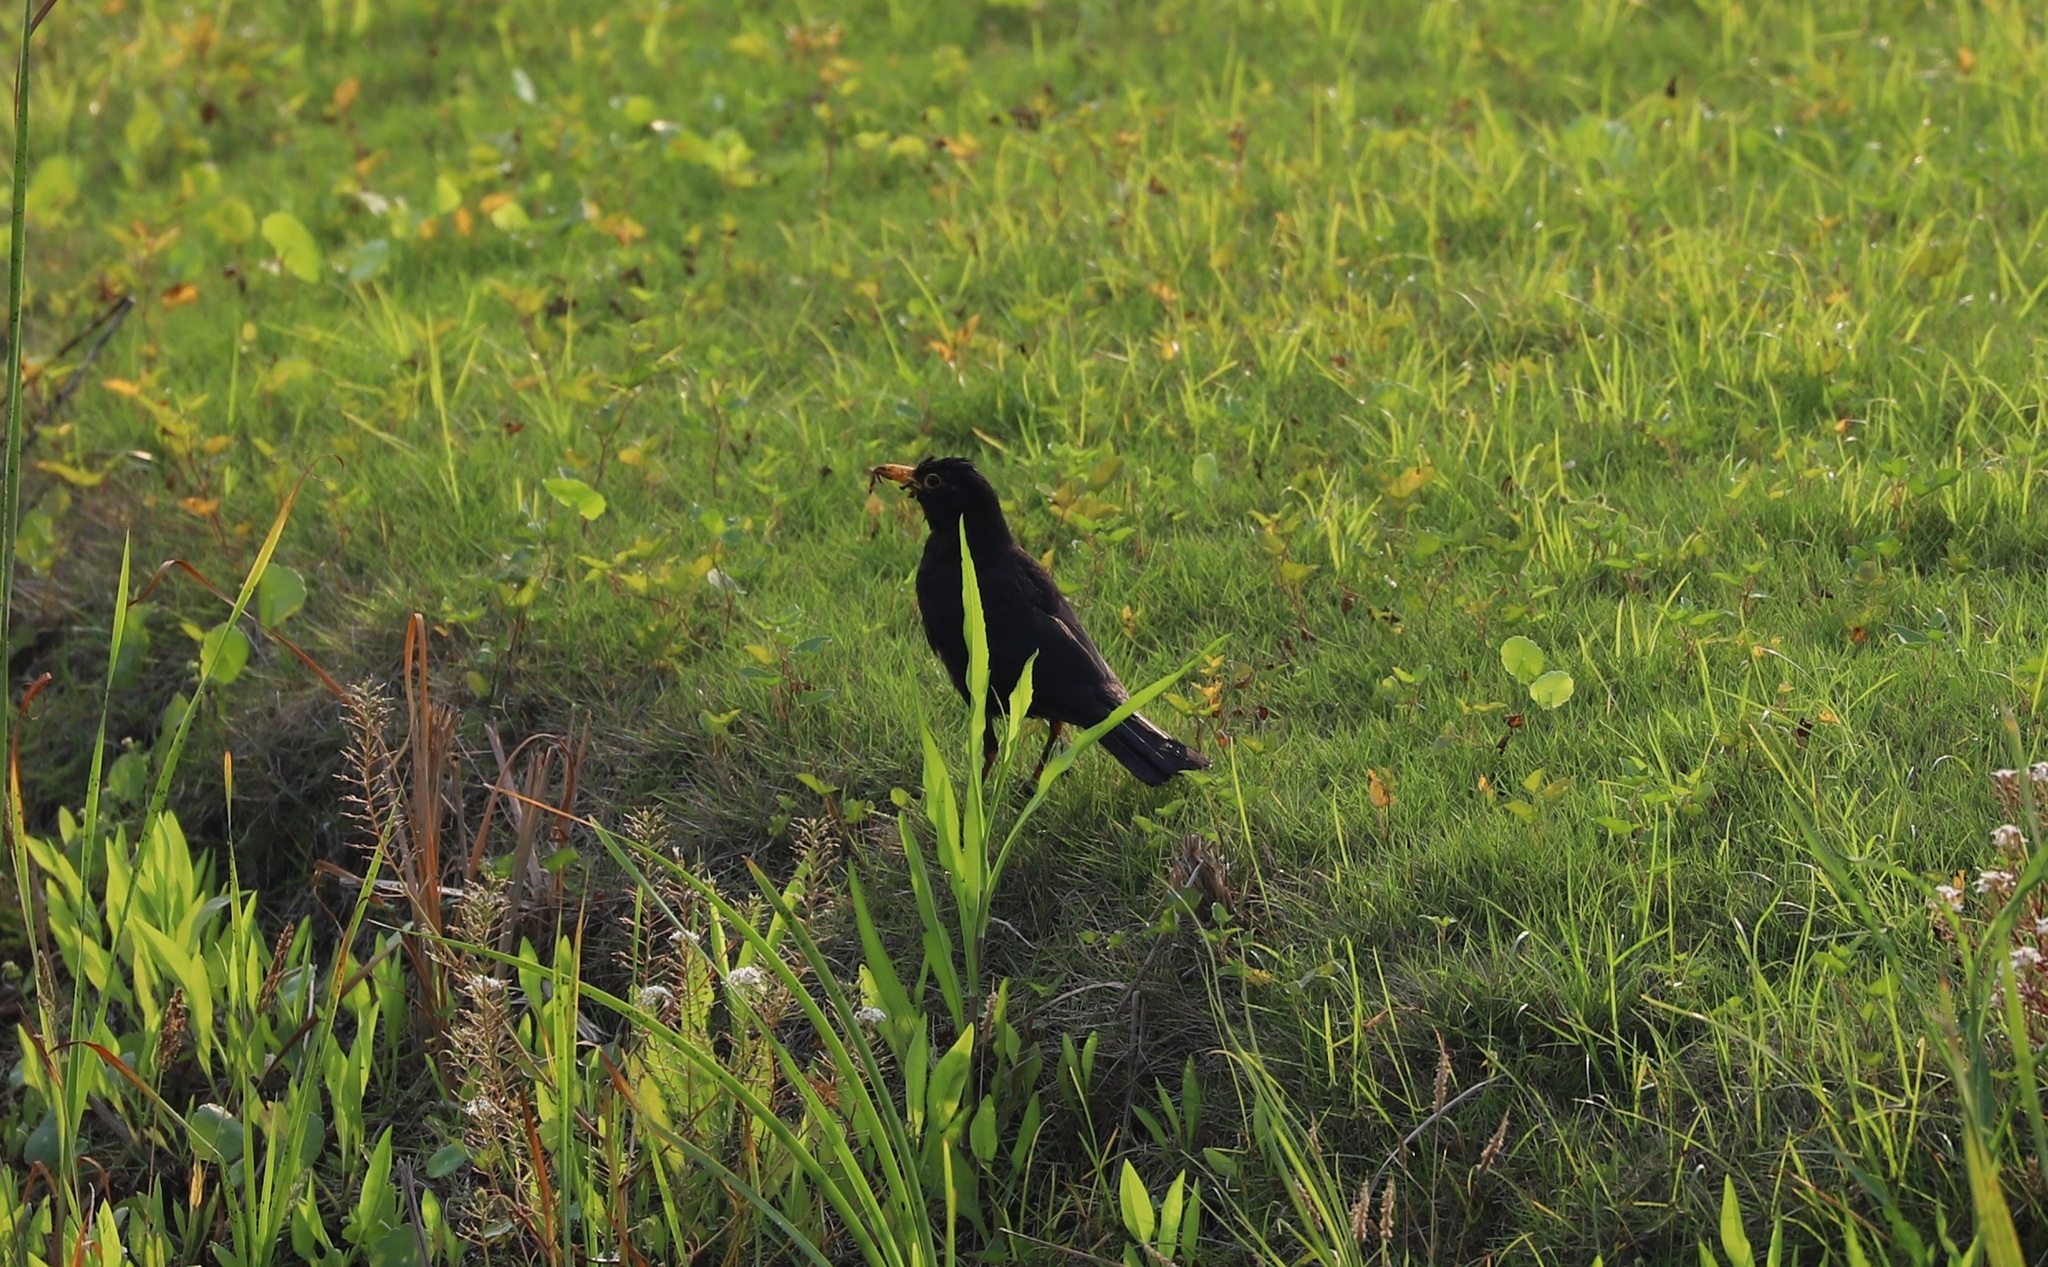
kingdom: Animalia
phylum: Chordata
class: Aves
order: Passeriformes
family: Turdidae
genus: Turdus
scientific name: Turdus mandarinus
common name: Chinese blackbird
